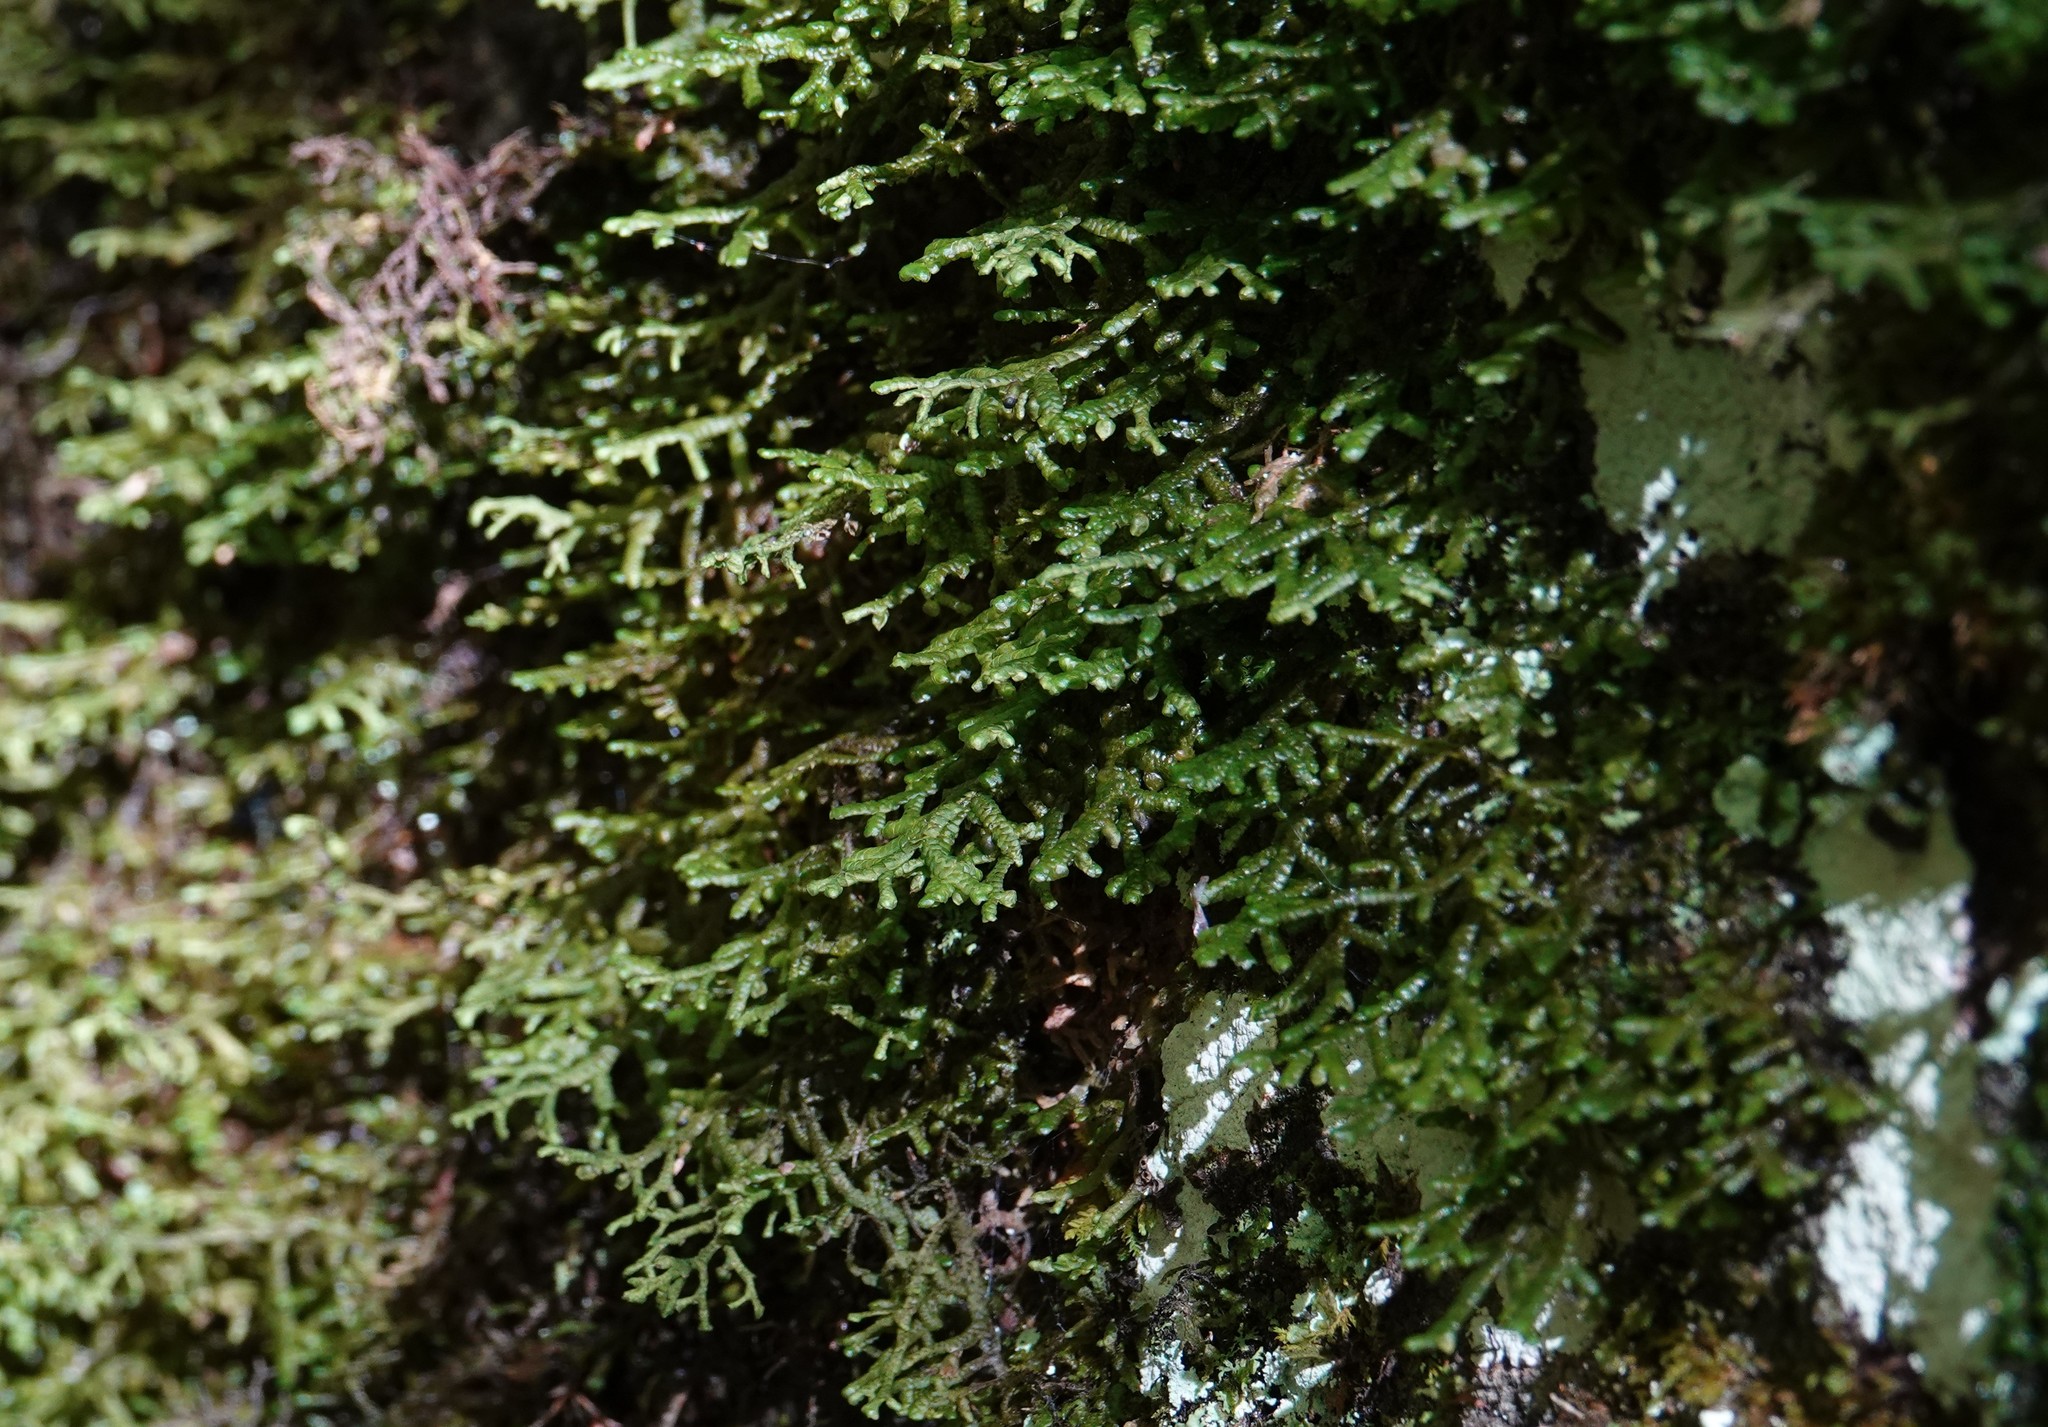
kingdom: Plantae
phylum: Marchantiophyta
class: Jungermanniopsida
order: Porellales
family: Porellaceae
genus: Porella
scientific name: Porella platyphylla
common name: Wall scalewort
